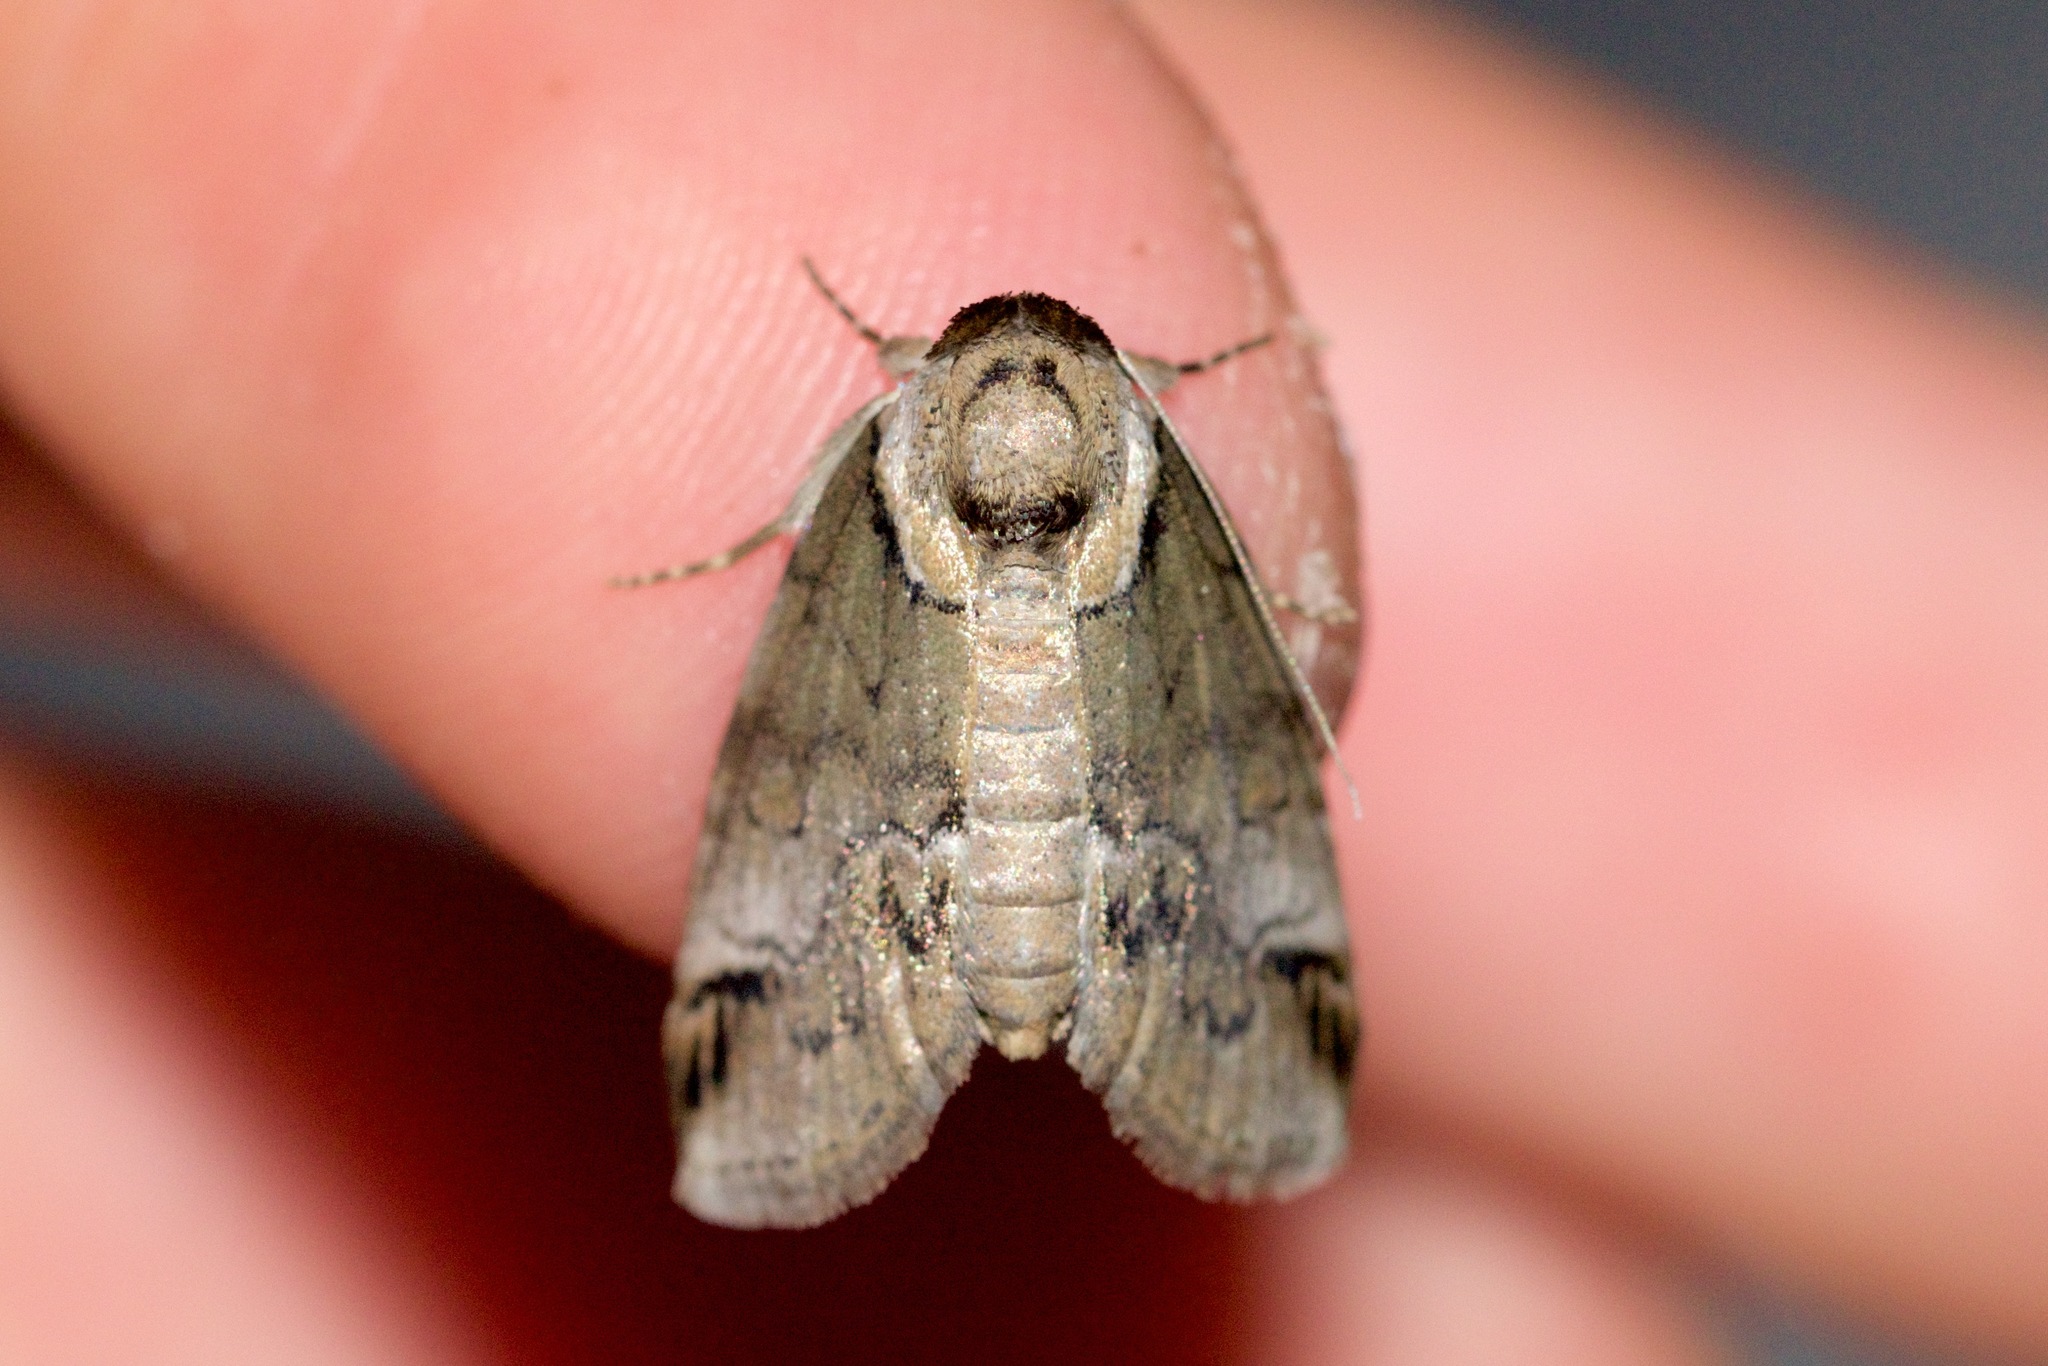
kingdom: Animalia
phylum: Arthropoda
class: Insecta
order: Lepidoptera
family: Nolidae
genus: Baileya
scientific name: Baileya australis
